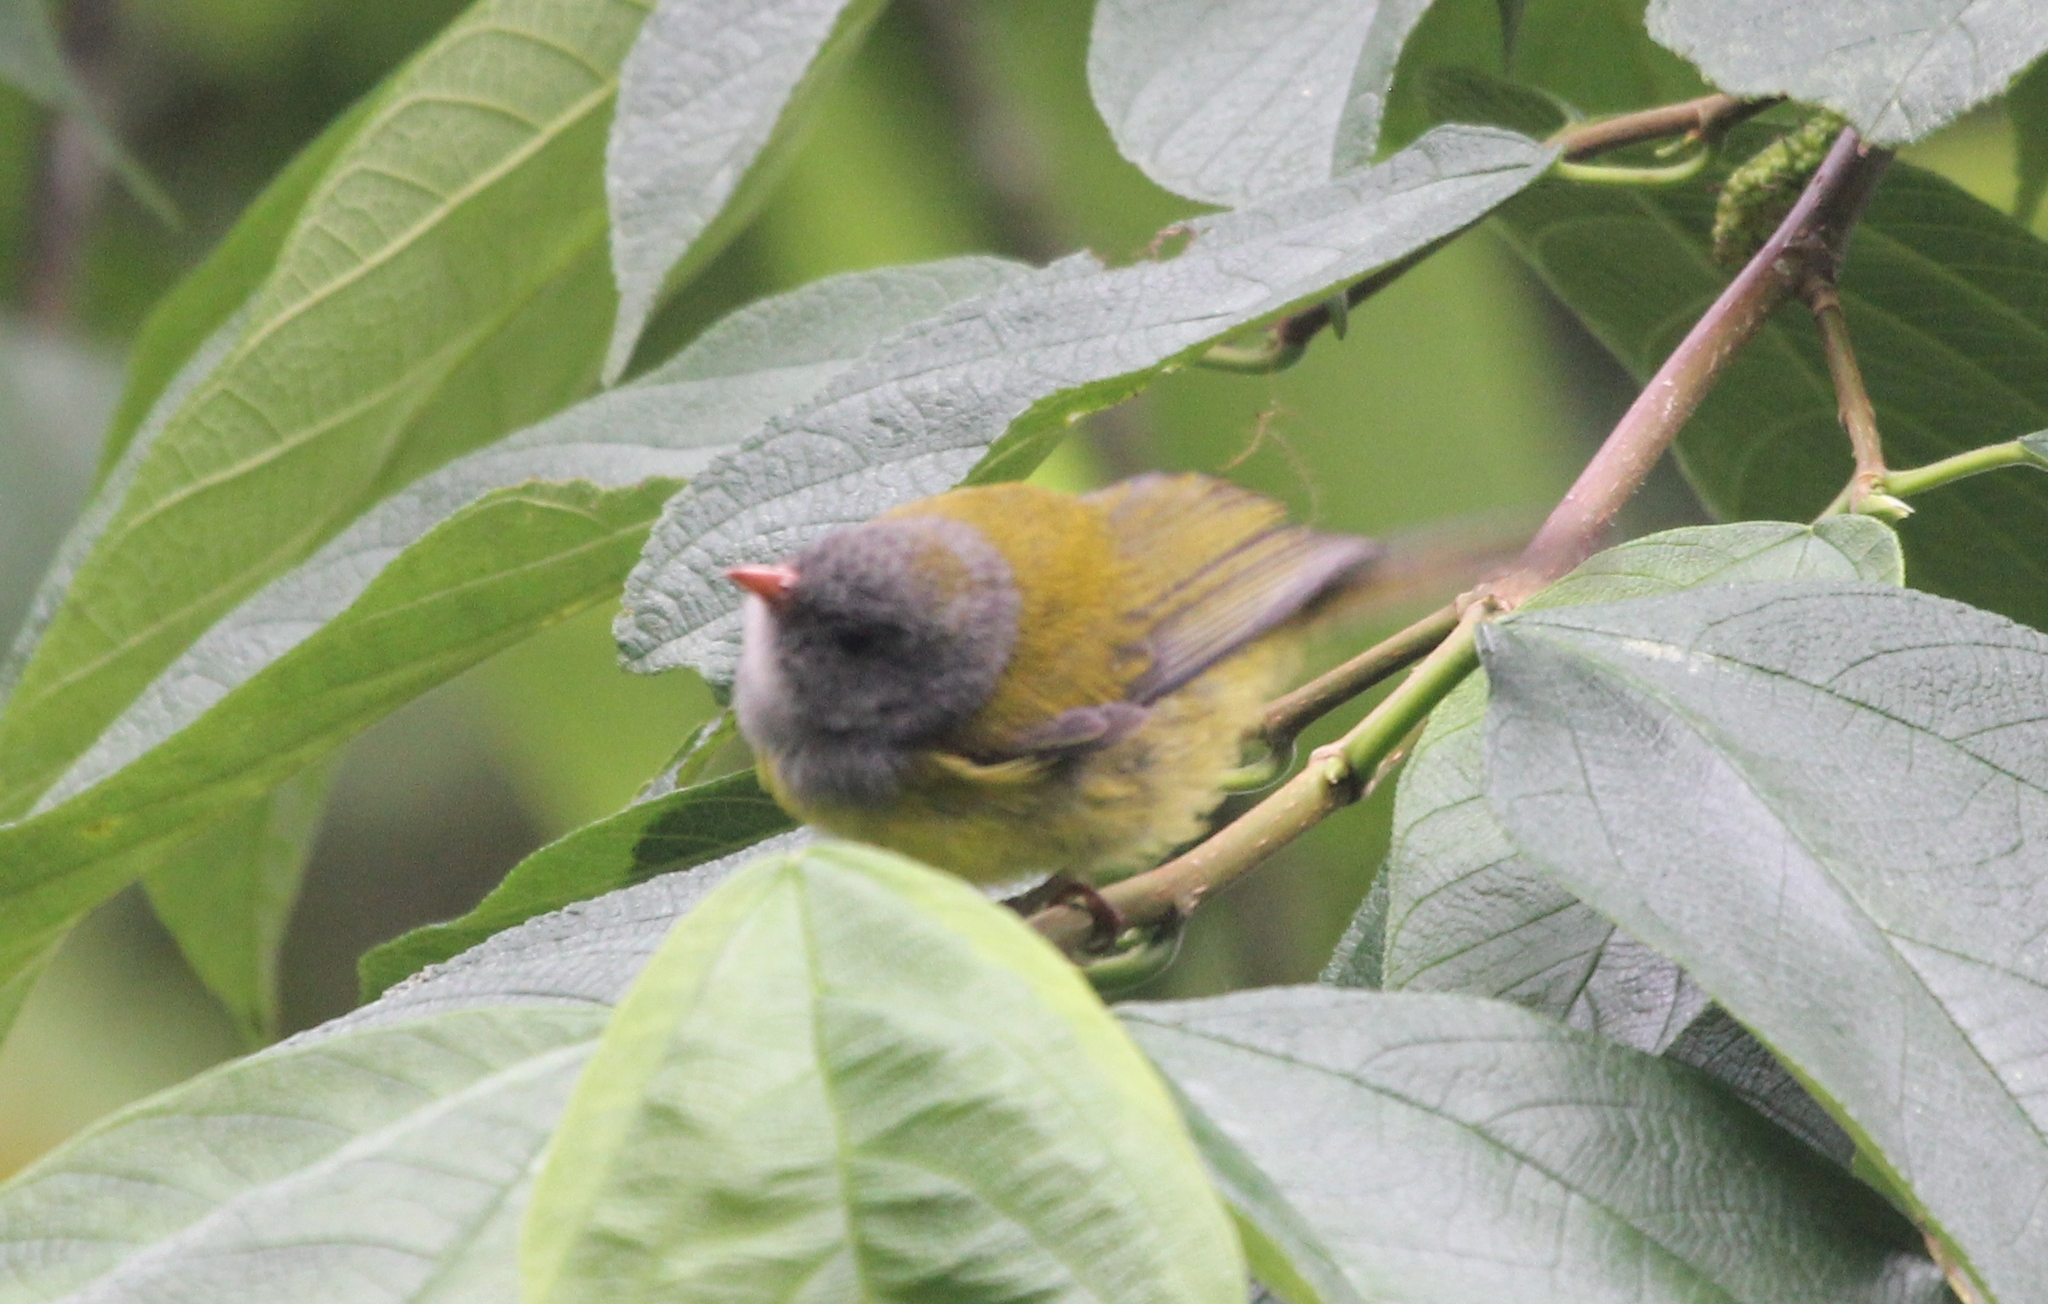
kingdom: Animalia
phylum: Chordata
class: Aves
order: Passeriformes
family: Thraupidae
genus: Cnemoscopus
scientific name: Cnemoscopus rubrirostris
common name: Grey-hooded bush tanager
